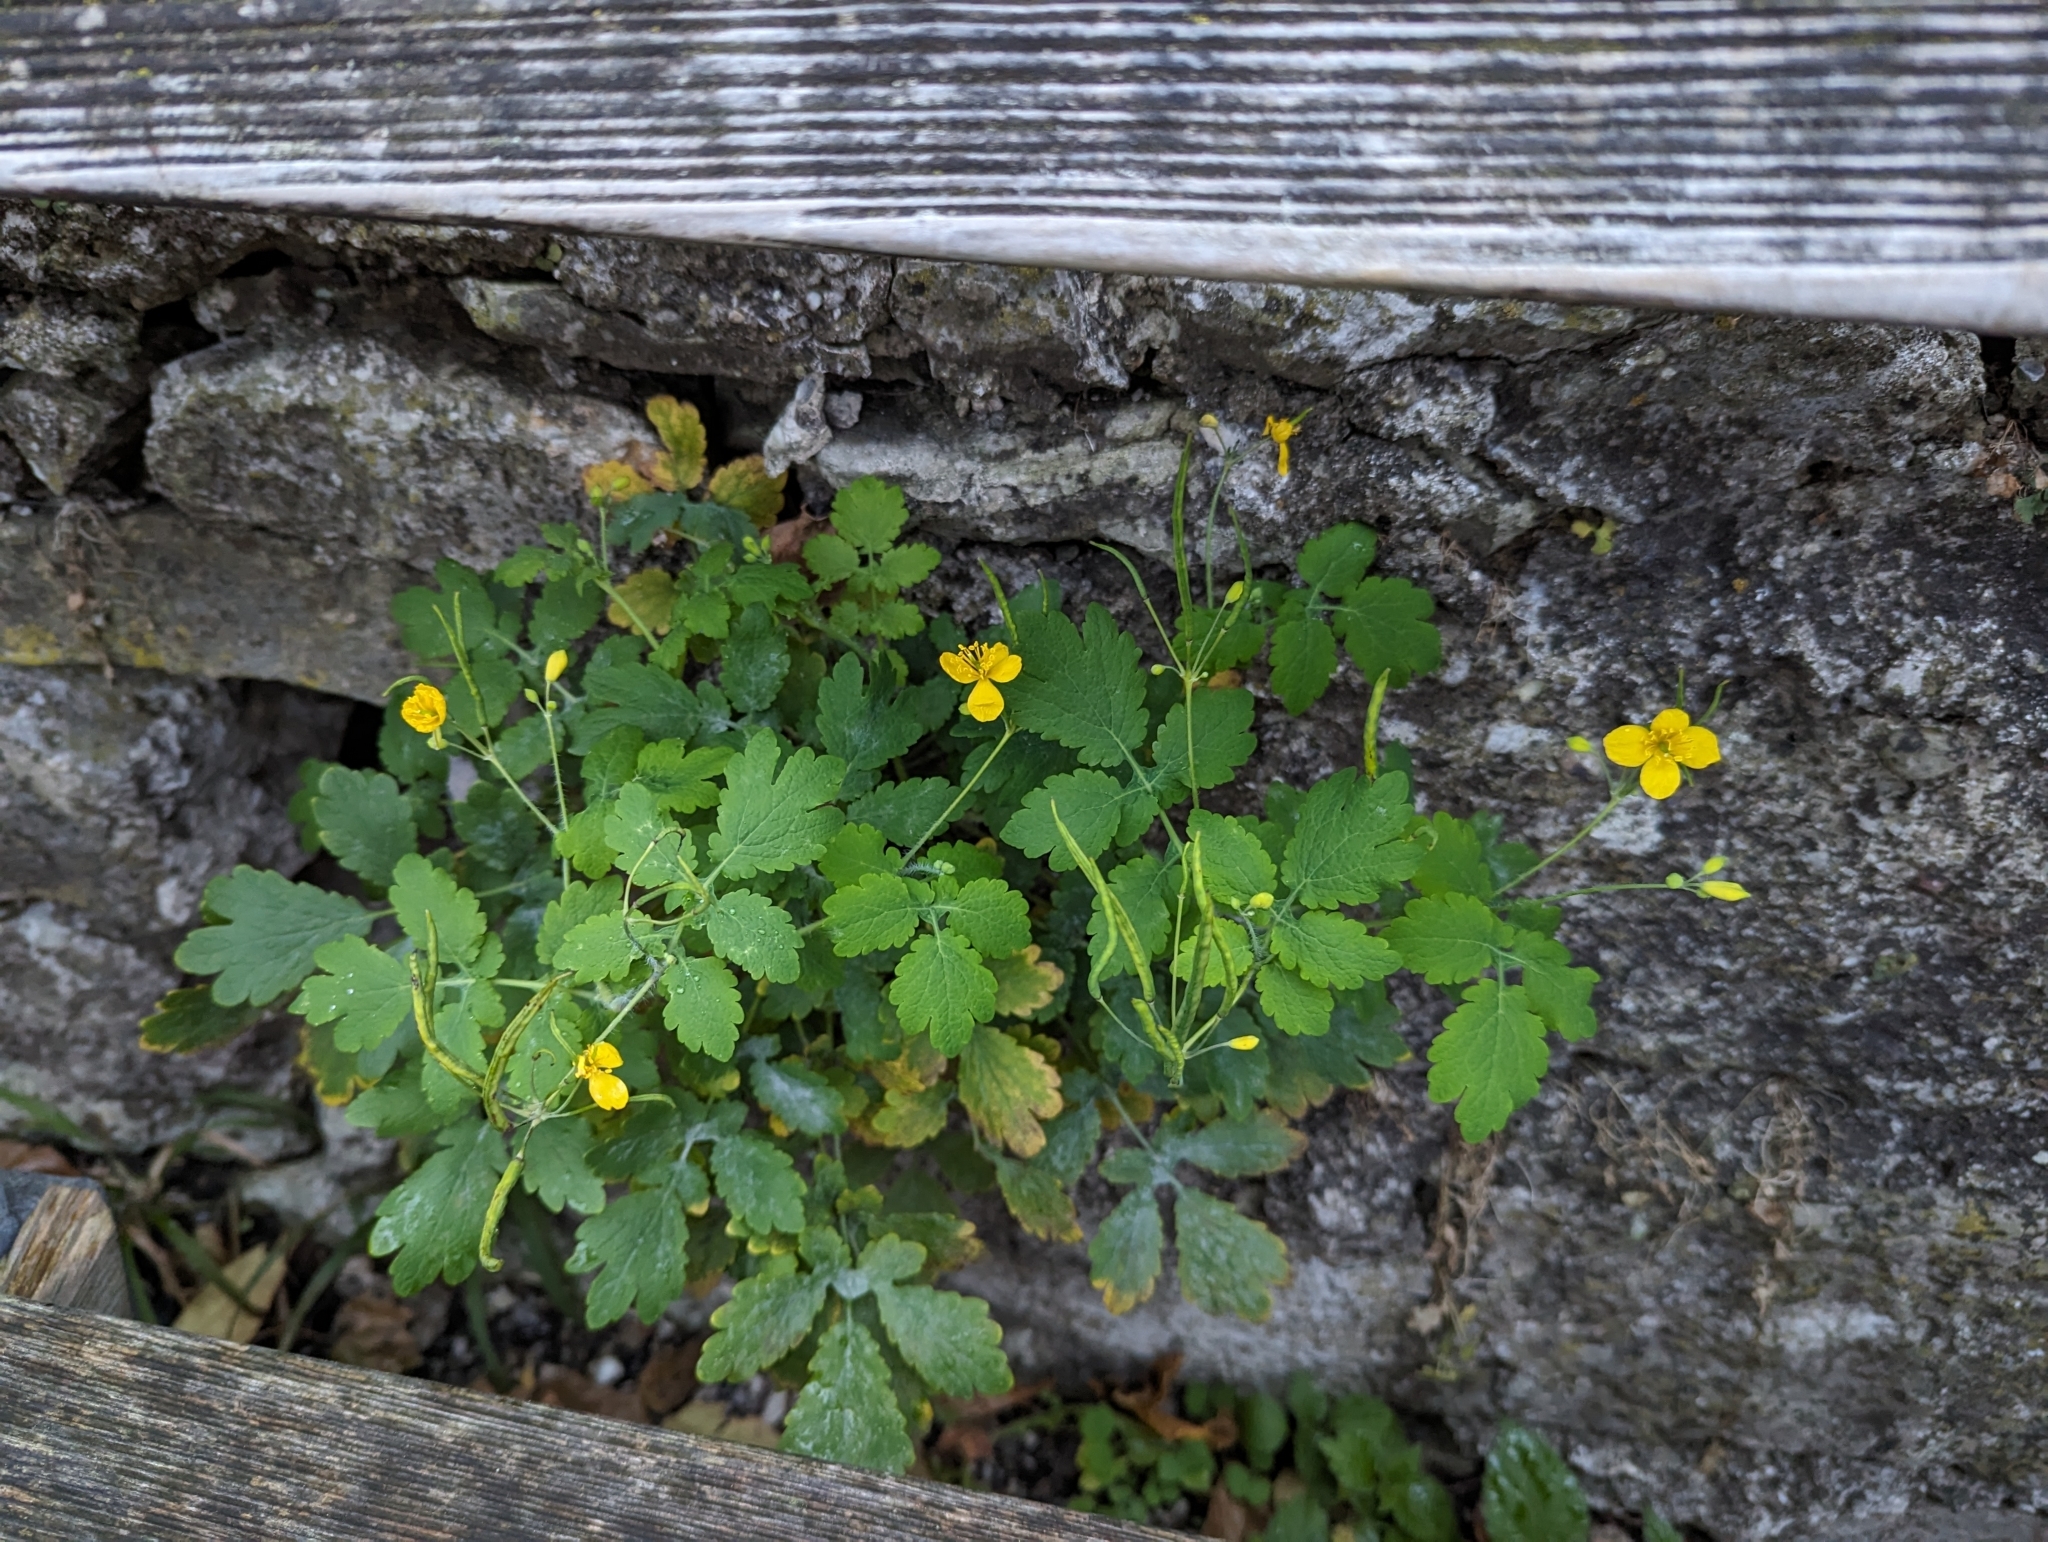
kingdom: Plantae
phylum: Tracheophyta
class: Magnoliopsida
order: Ranunculales
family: Papaveraceae
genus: Chelidonium
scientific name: Chelidonium majus
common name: Greater celandine
